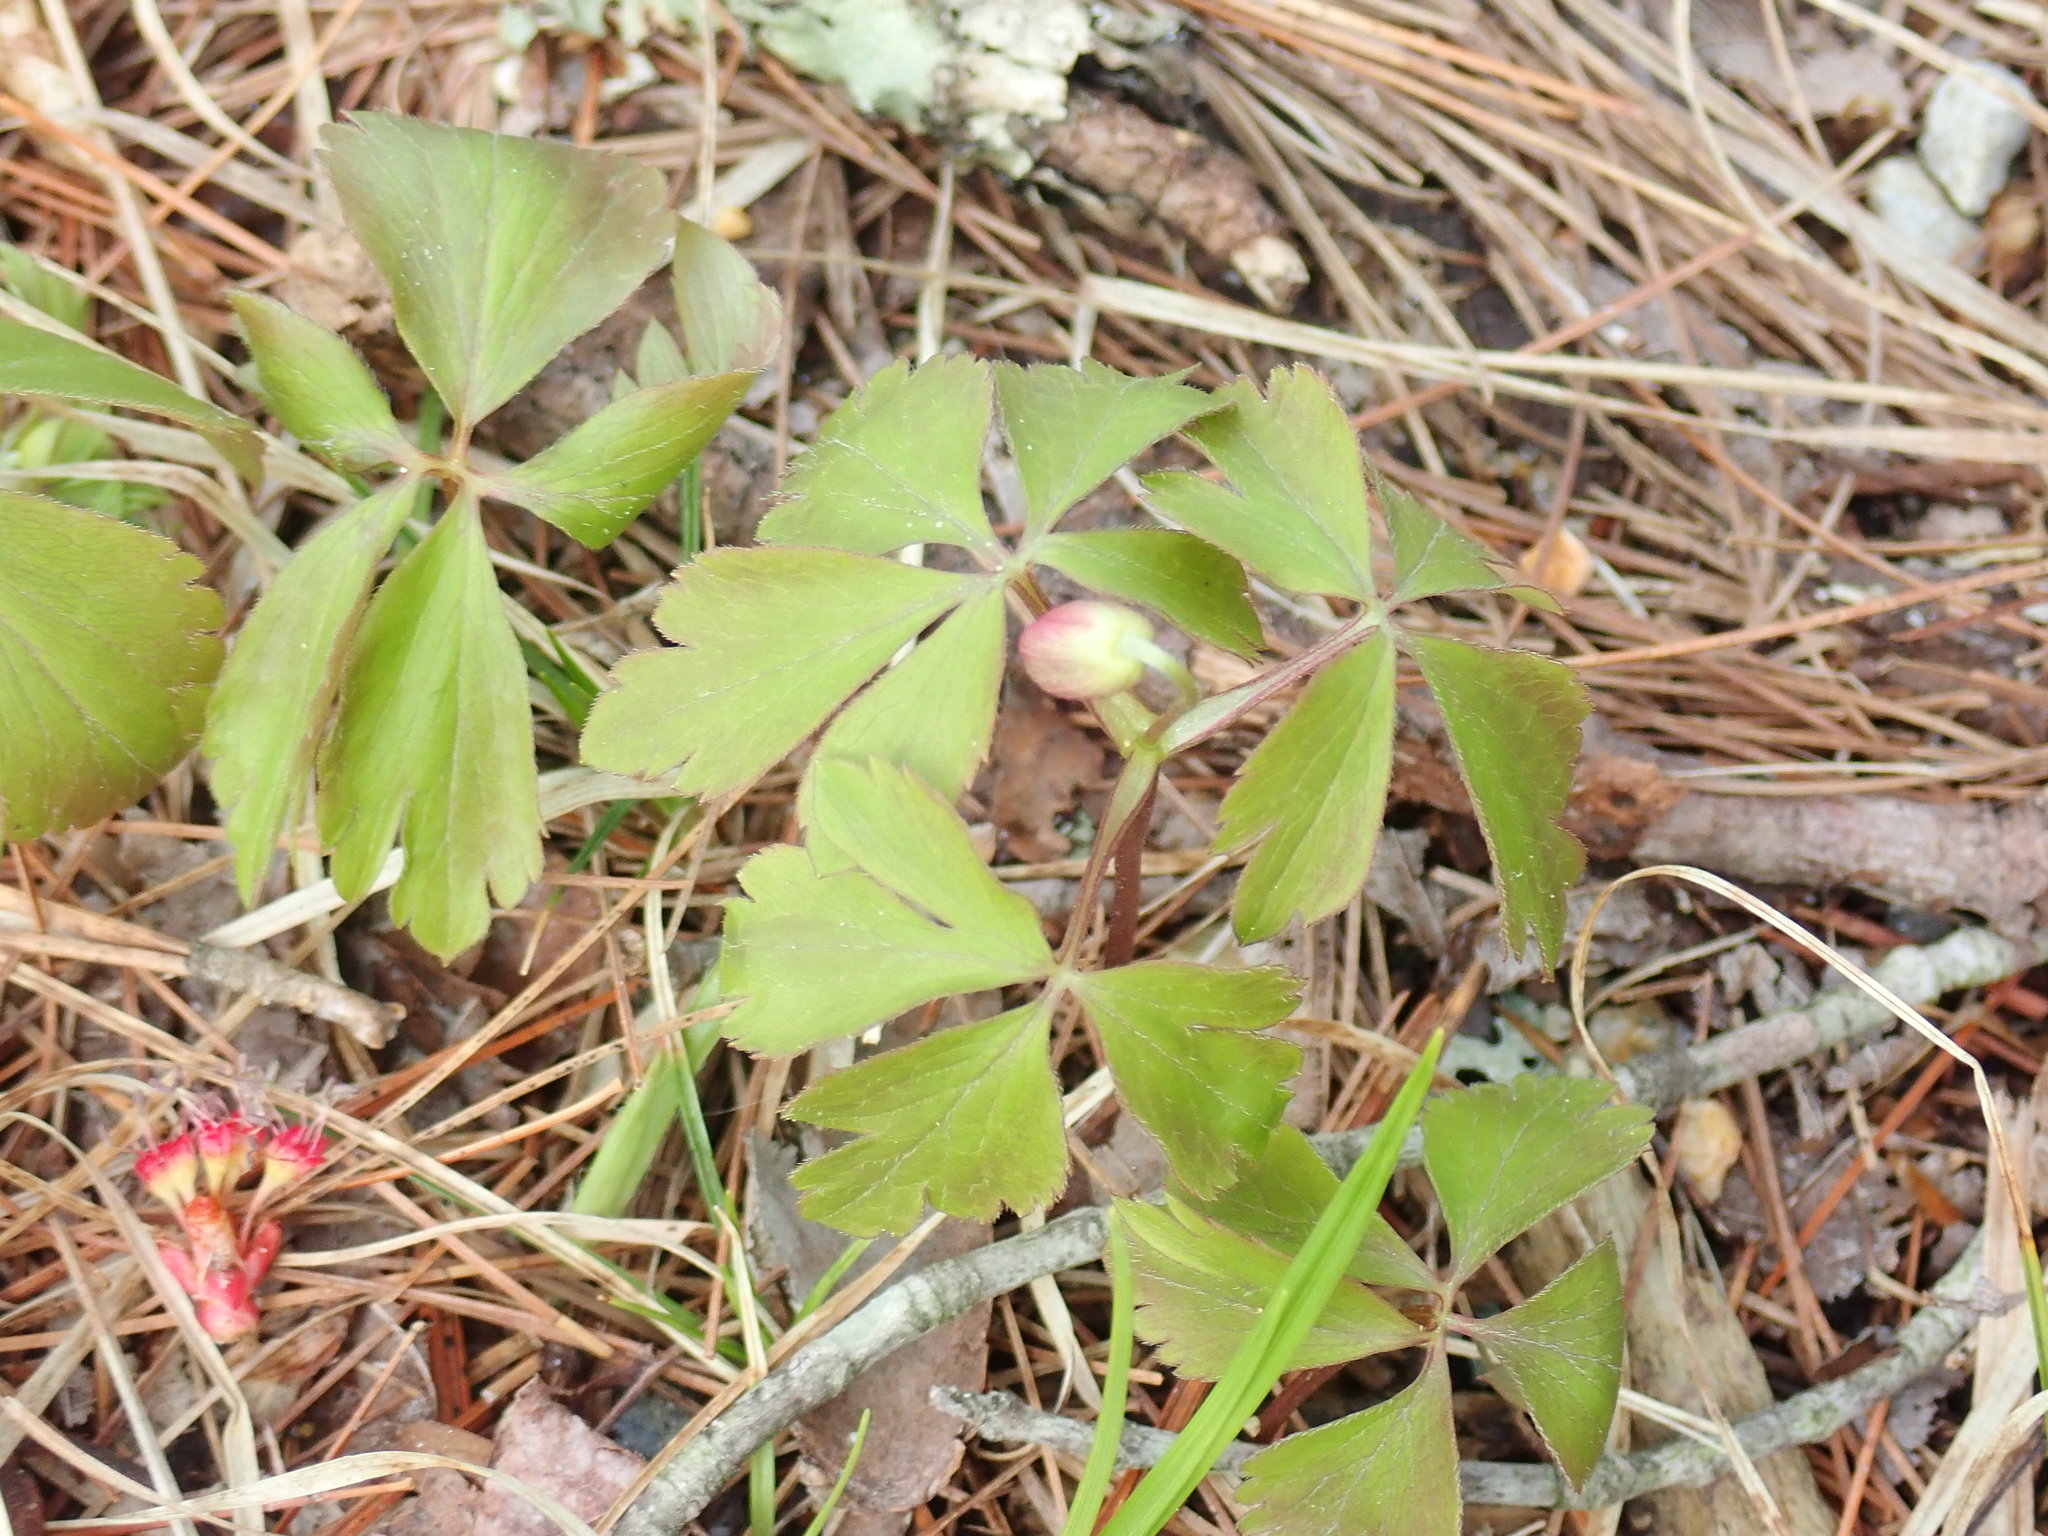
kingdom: Plantae
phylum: Tracheophyta
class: Magnoliopsida
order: Ranunculales
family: Ranunculaceae
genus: Anemone
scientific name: Anemone quinquefolia
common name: Wood anemone
